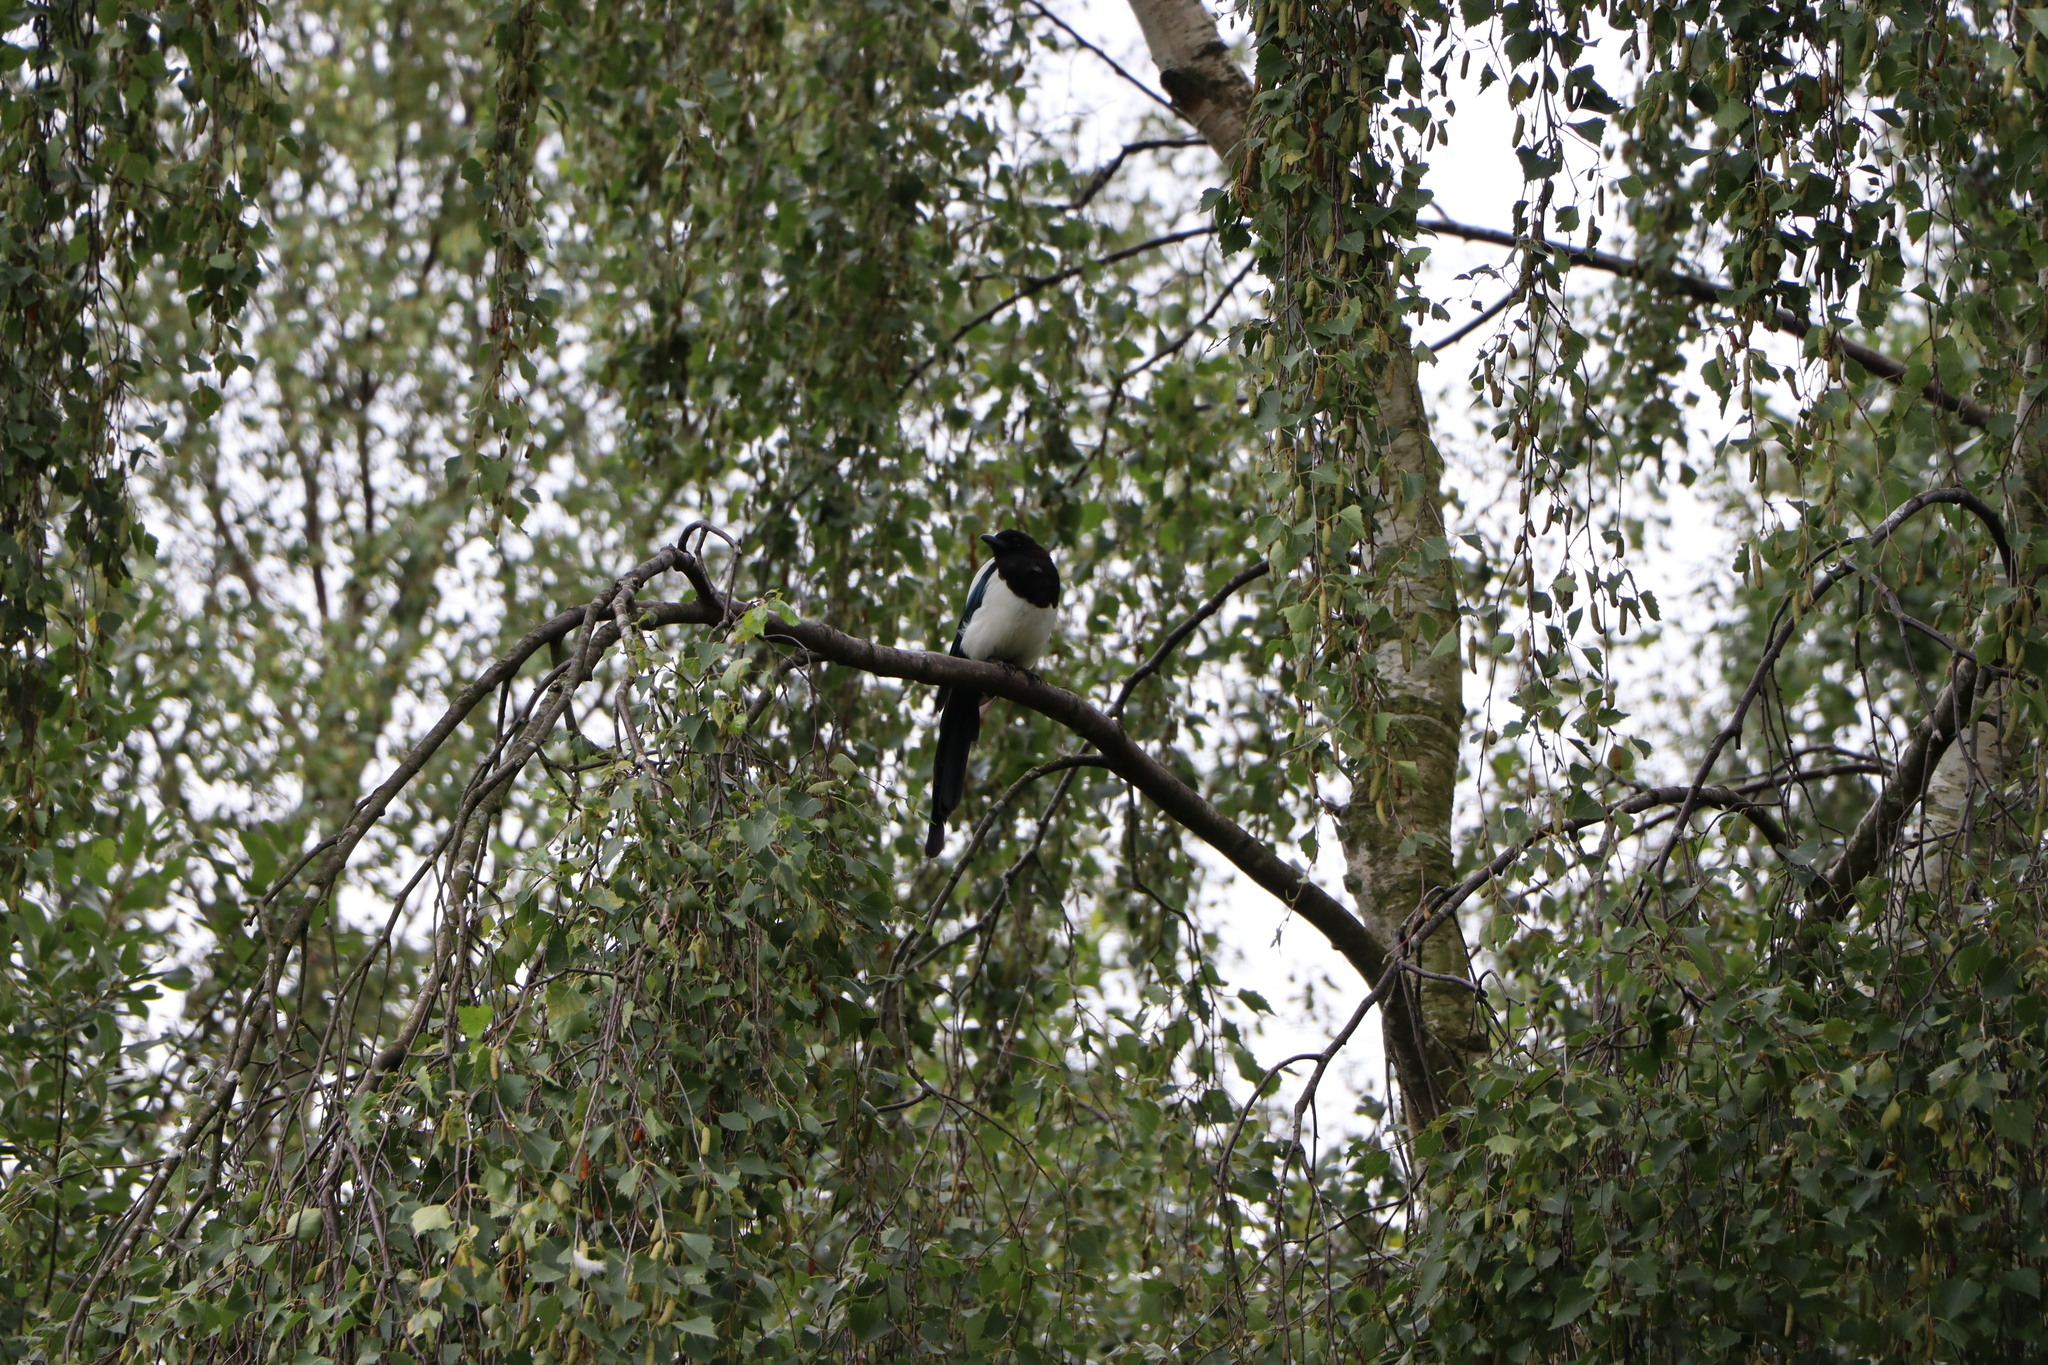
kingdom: Animalia
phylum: Chordata
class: Aves
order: Passeriformes
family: Corvidae
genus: Pica
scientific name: Pica pica
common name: Eurasian magpie
